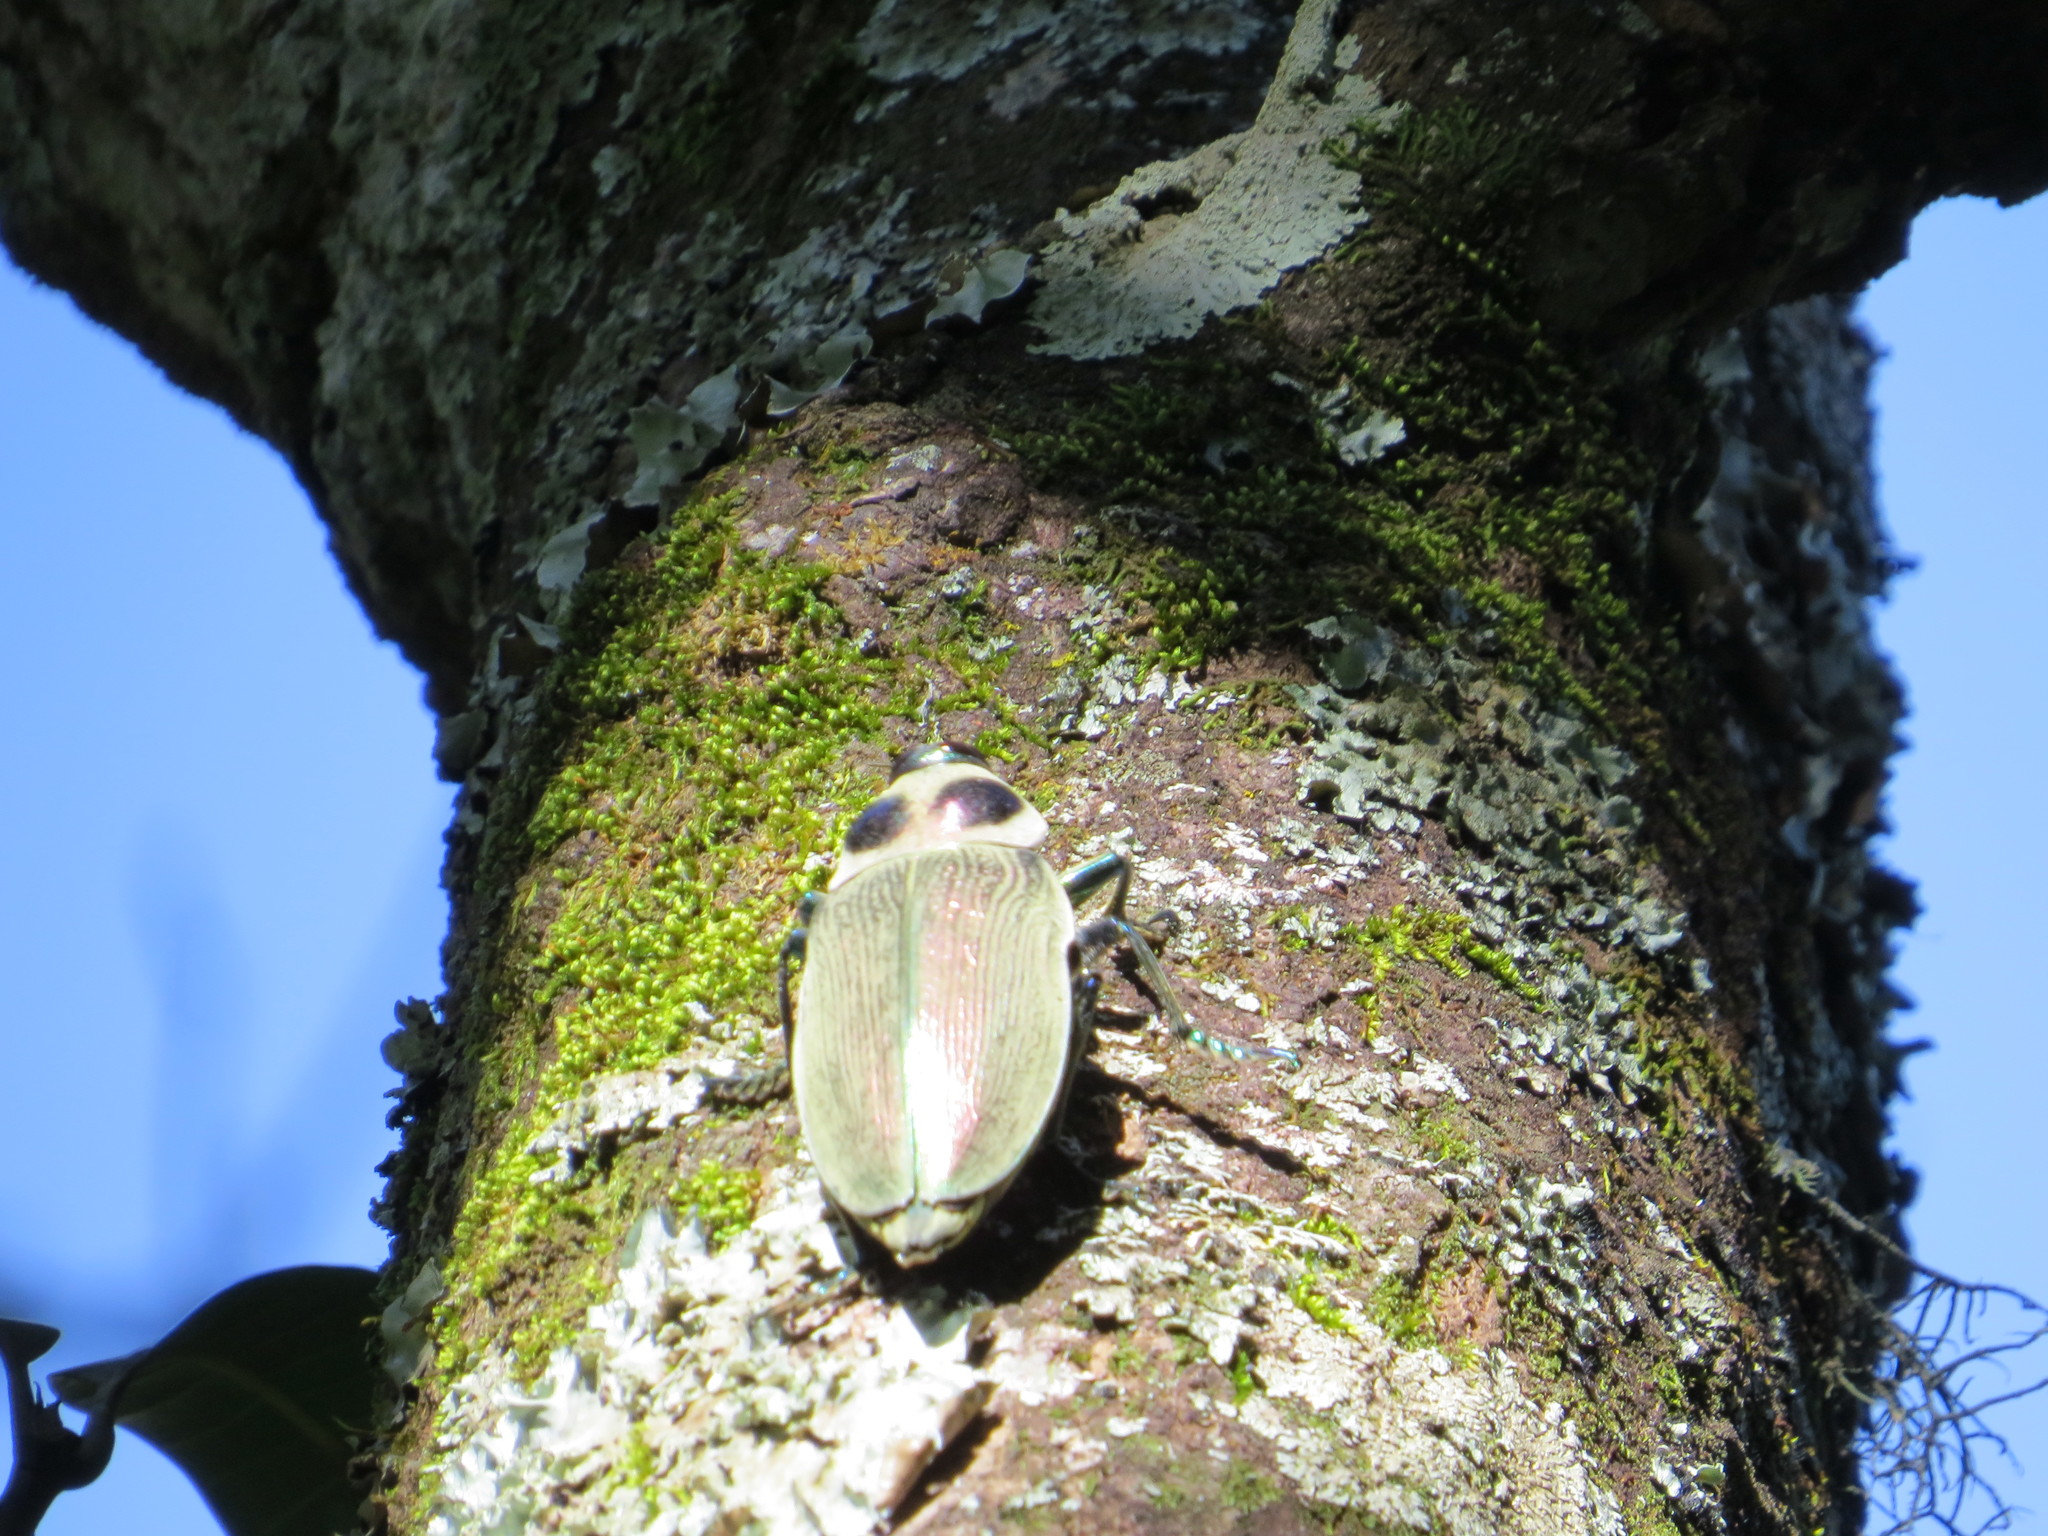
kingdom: Animalia
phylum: Arthropoda
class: Insecta
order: Coleoptera
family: Buprestidae
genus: Euchroma
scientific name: Euchroma giganteum
